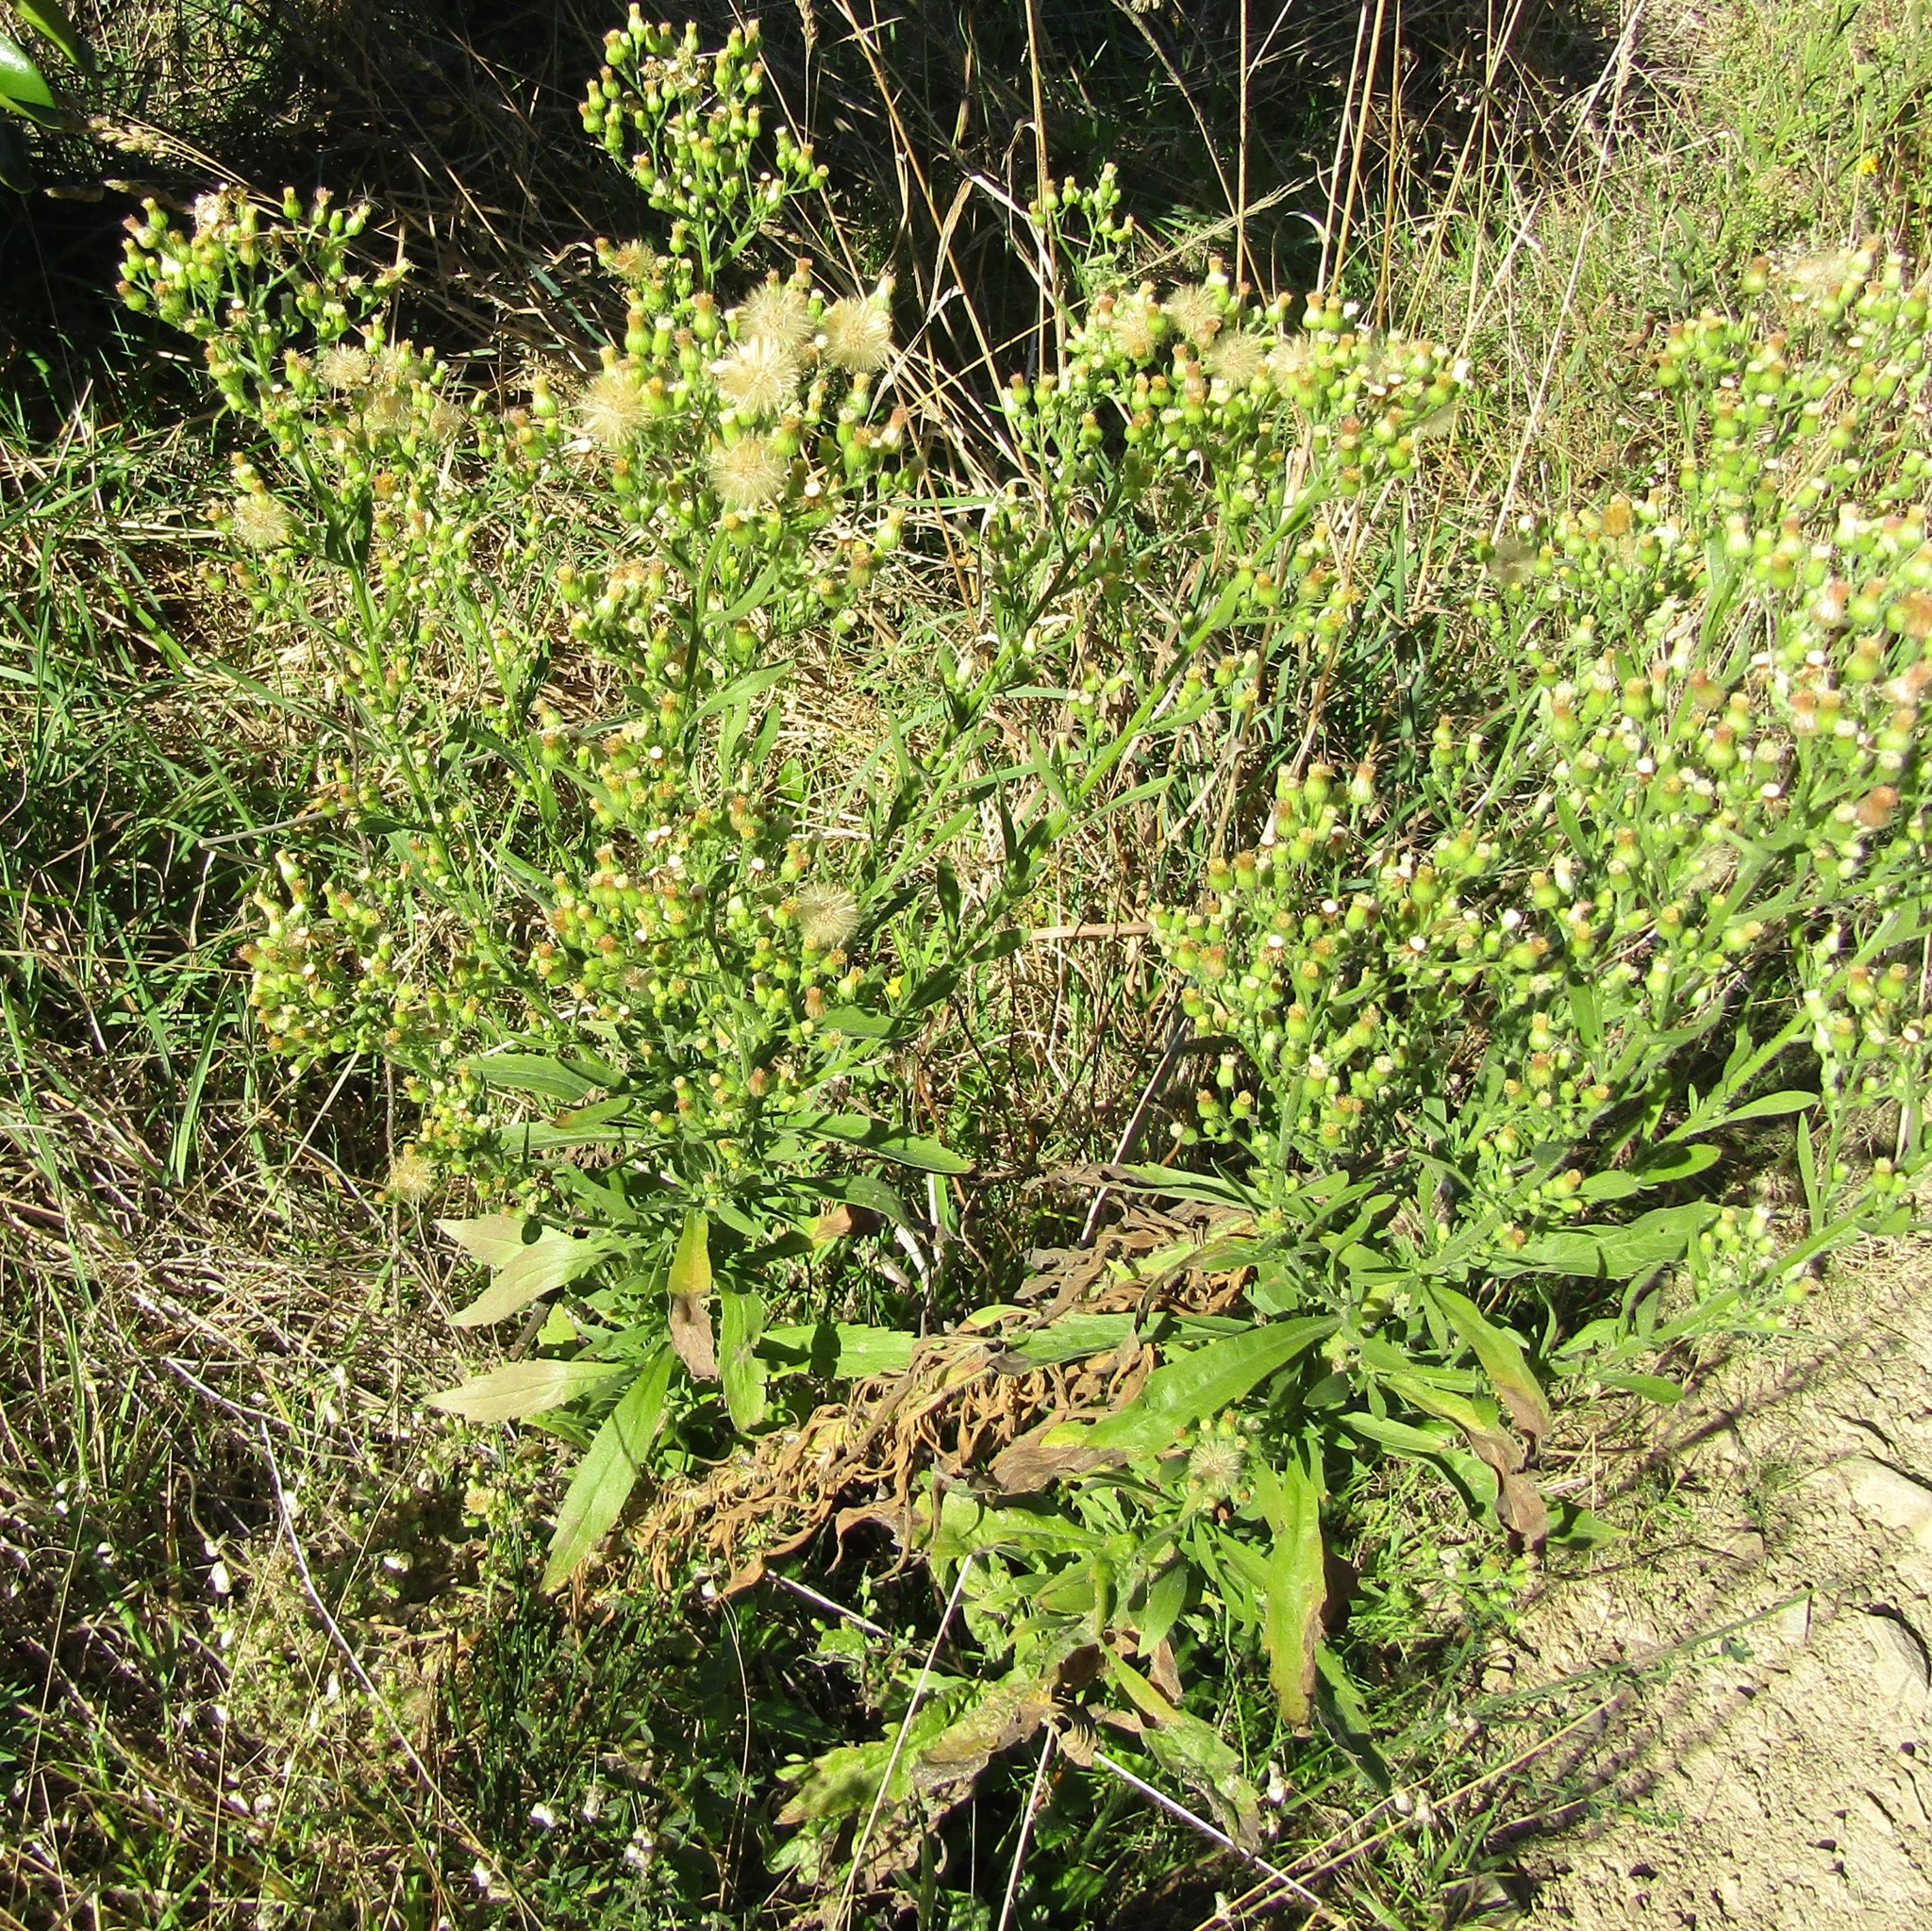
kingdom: Plantae
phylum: Tracheophyta
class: Magnoliopsida
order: Asterales
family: Asteraceae
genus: Erigeron
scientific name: Erigeron sumatrensis
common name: Daisy
